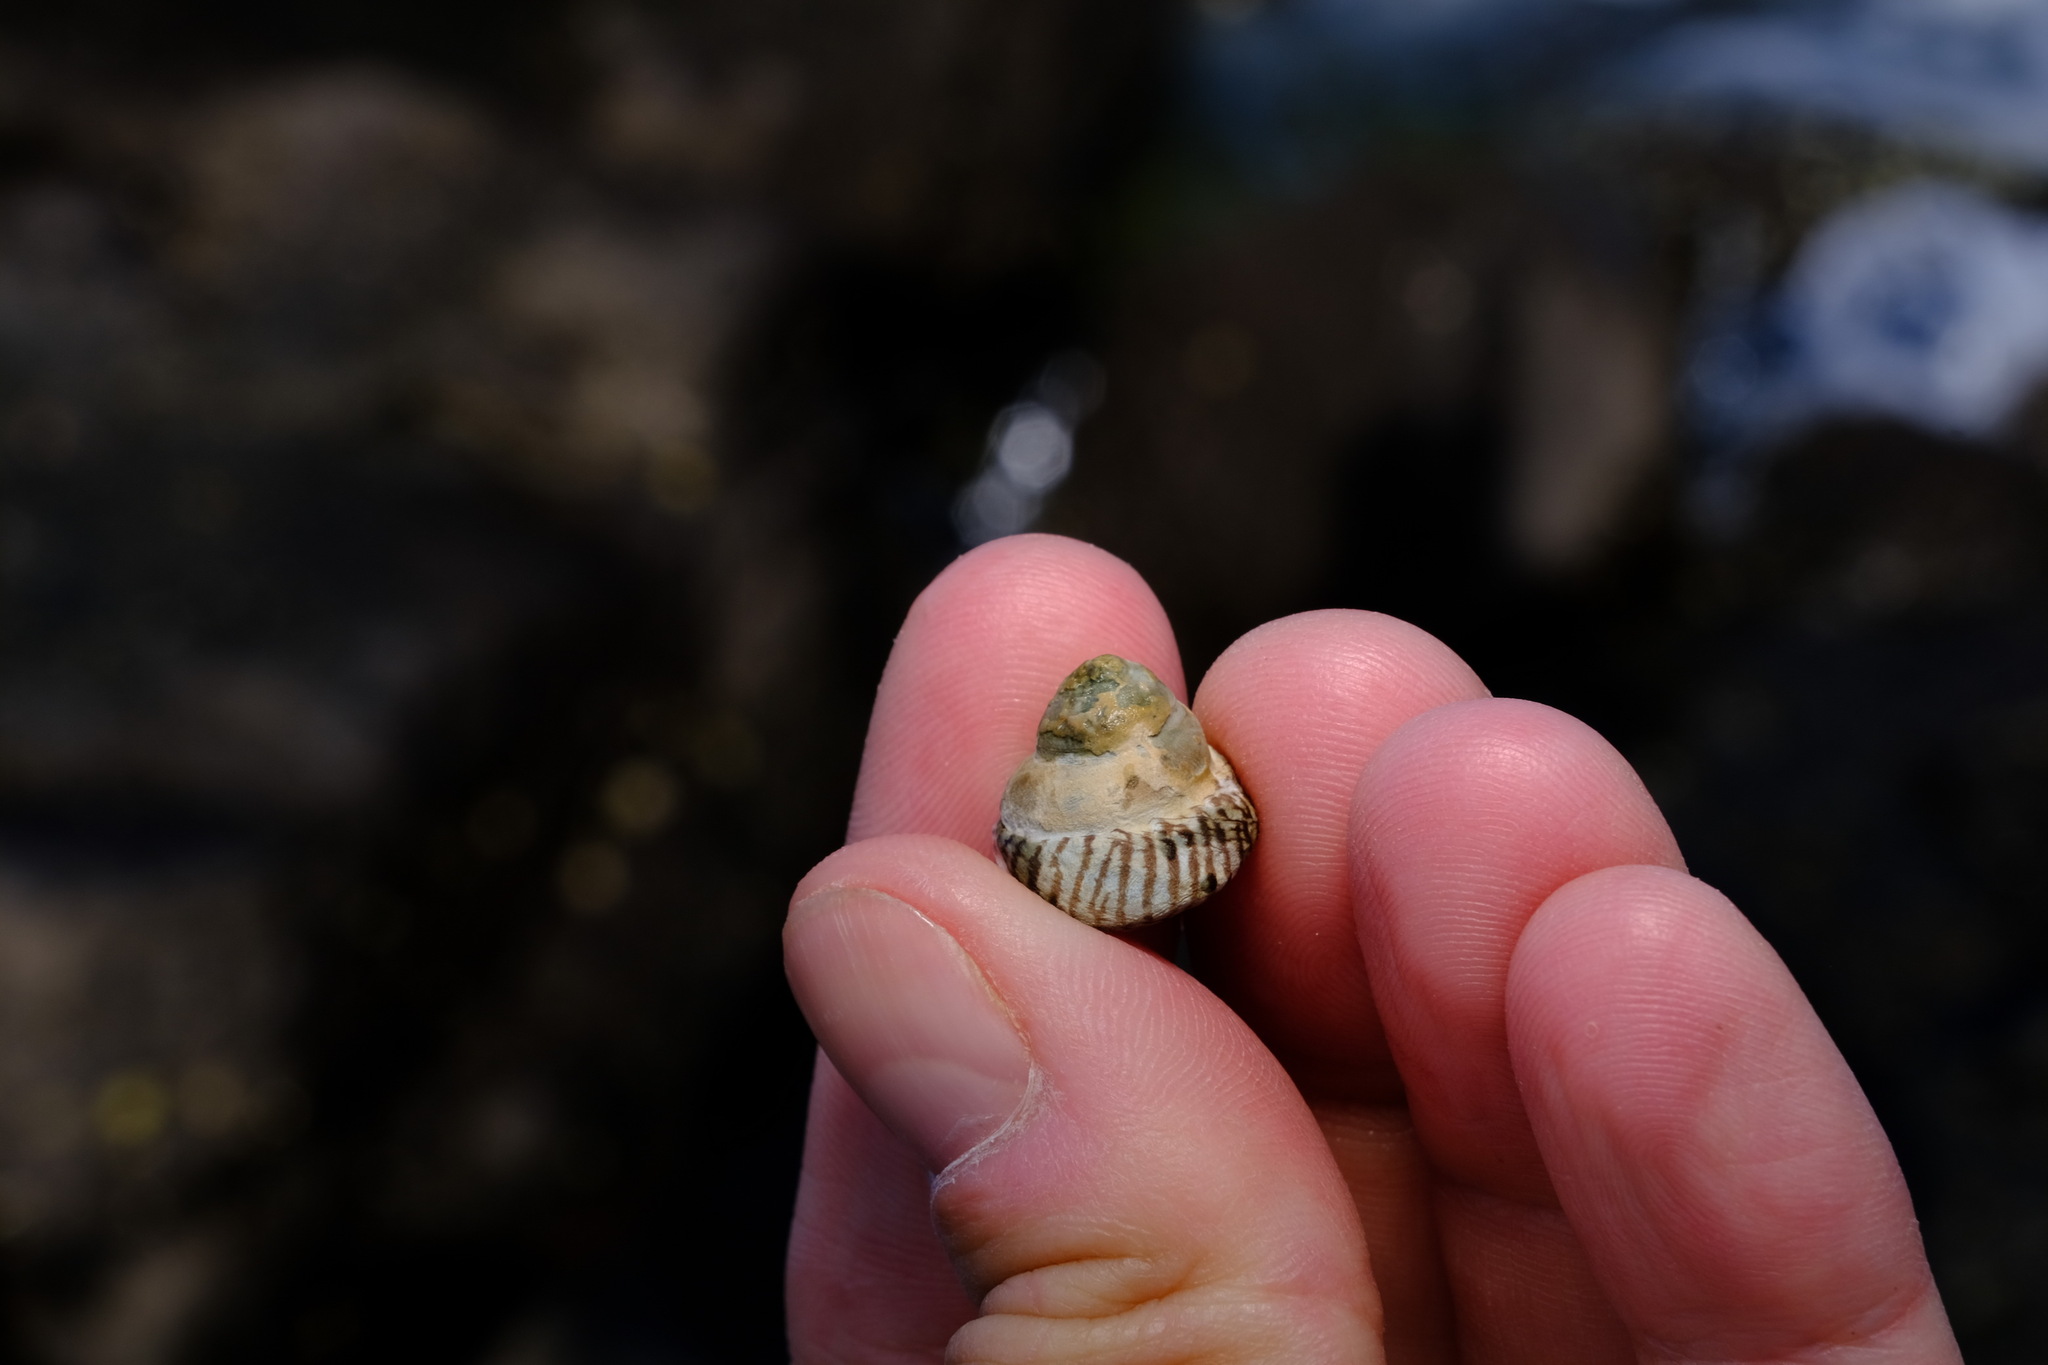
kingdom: Animalia
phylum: Mollusca
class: Gastropoda
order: Littorinimorpha
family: Littorinidae
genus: Bembicium
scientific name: Bembicium nanum
